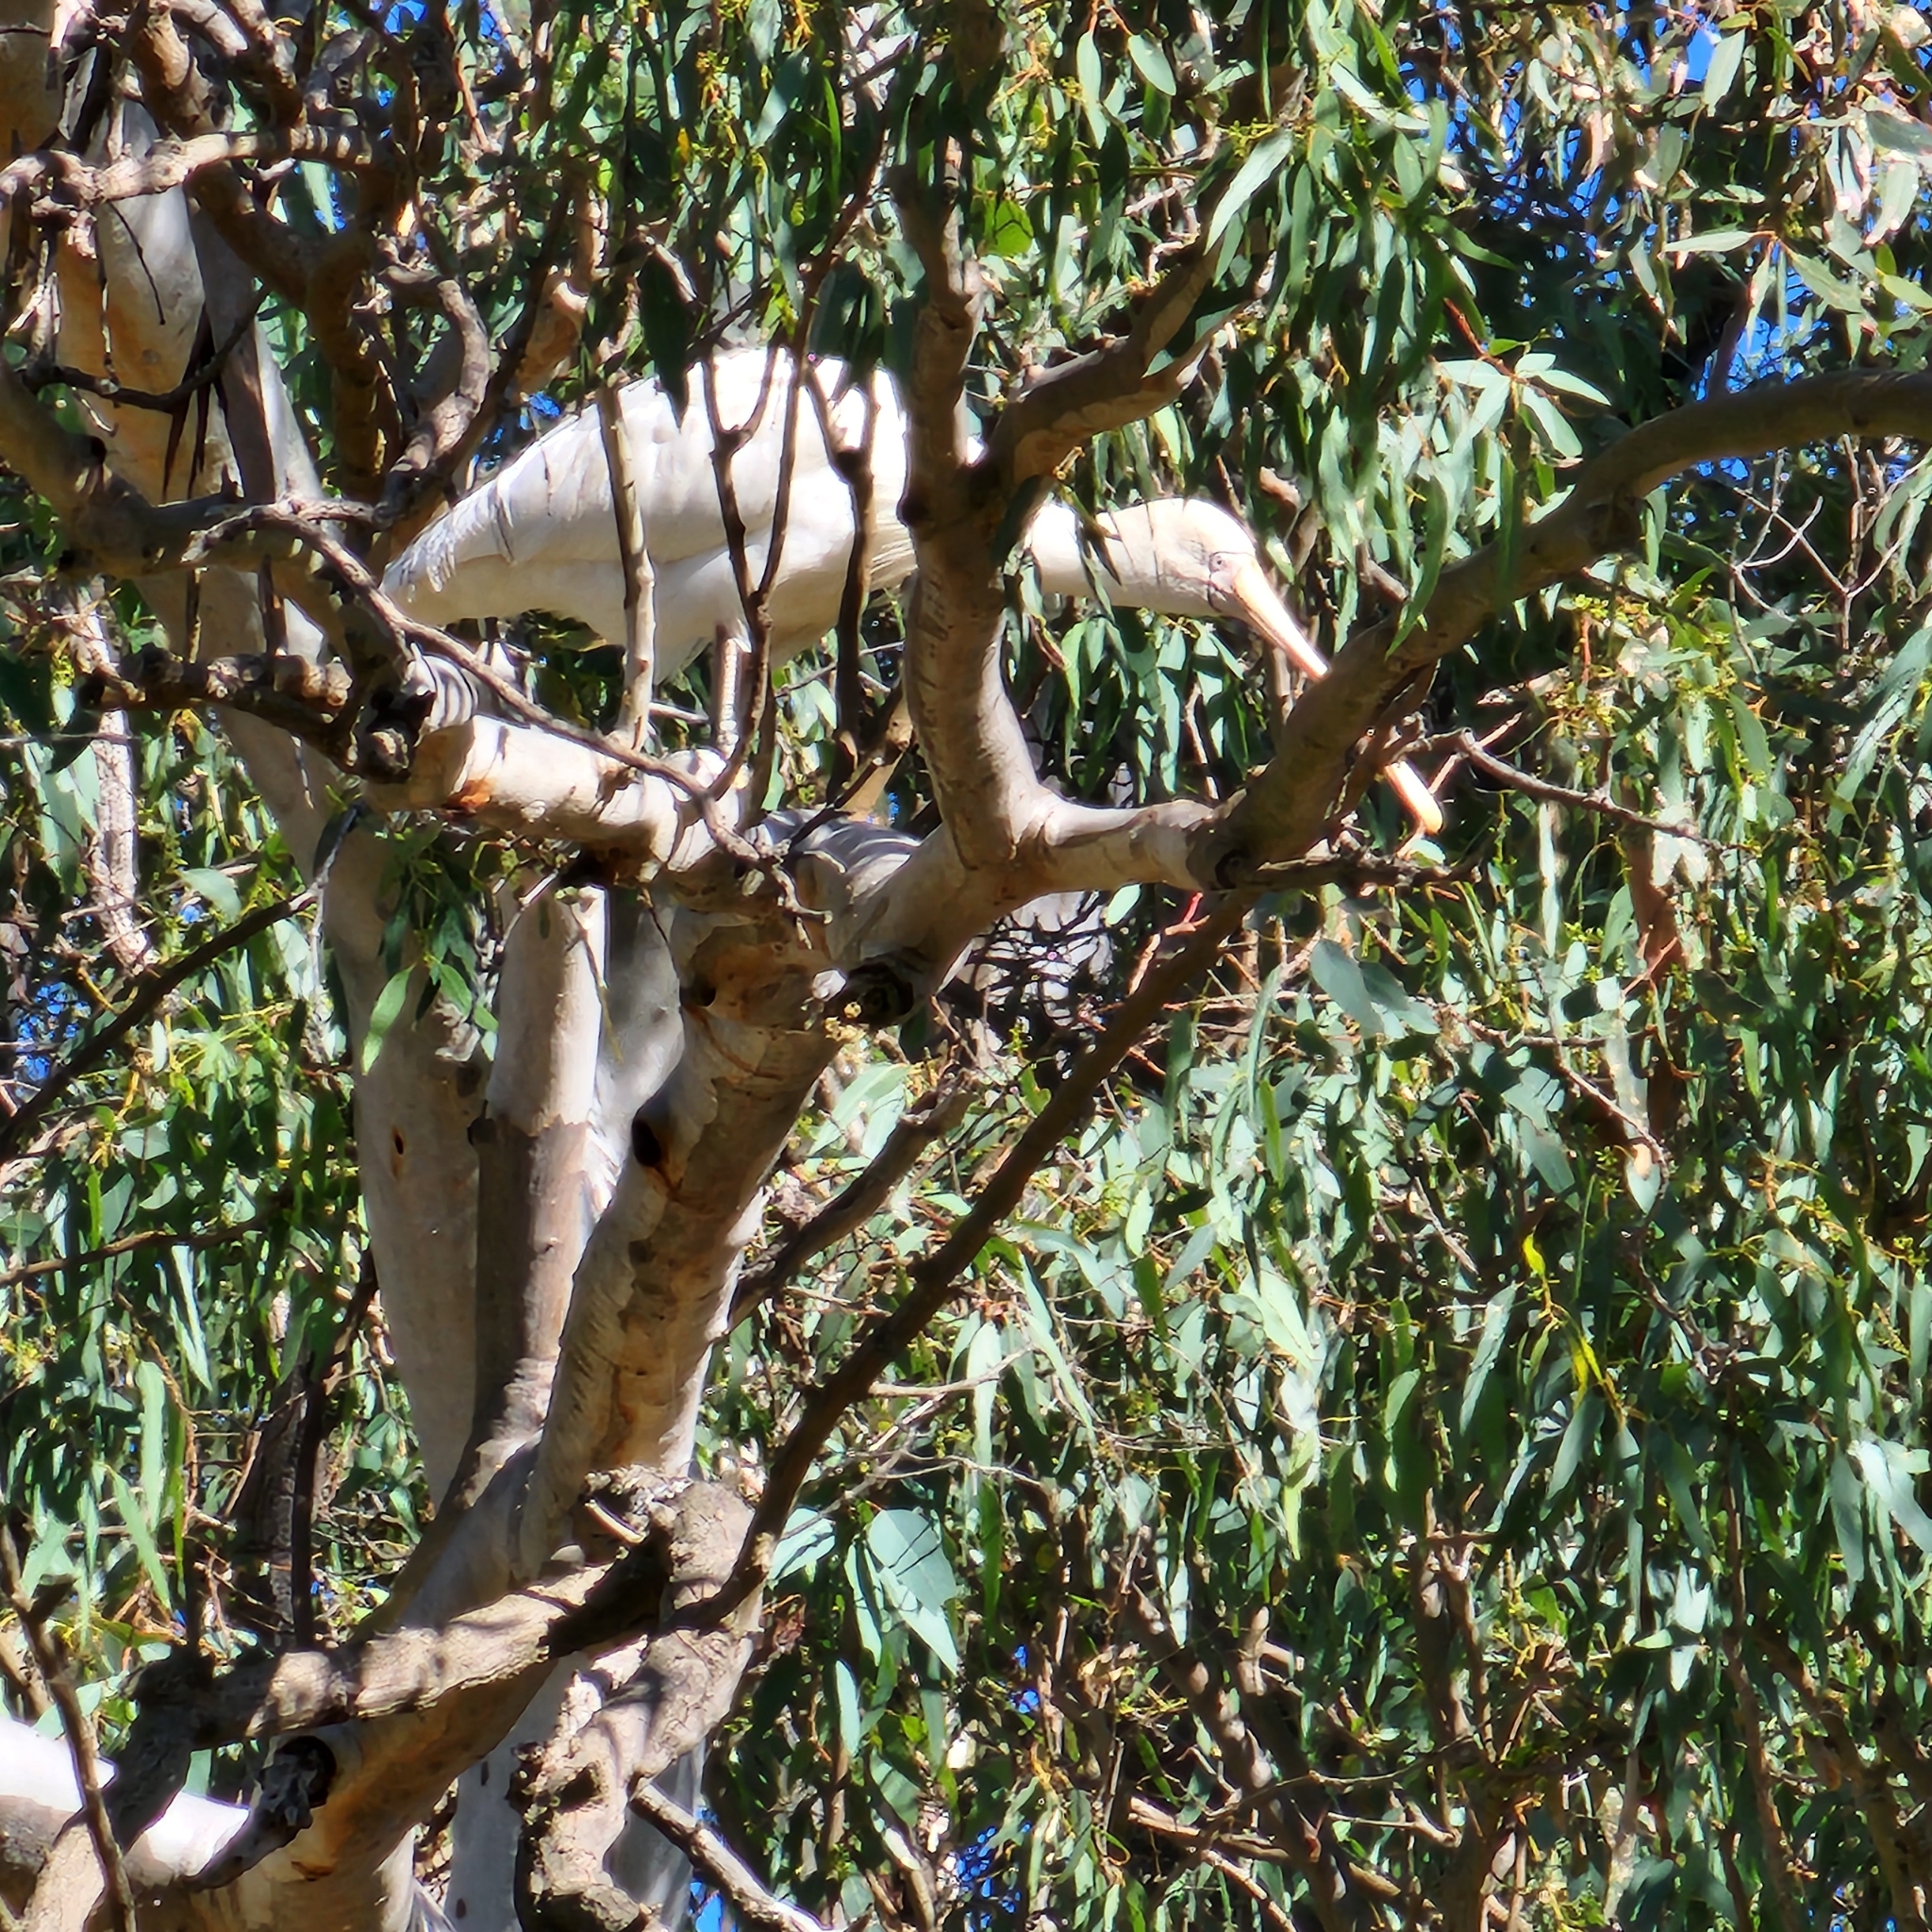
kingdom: Animalia
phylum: Chordata
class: Aves
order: Pelecaniformes
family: Threskiornithidae
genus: Platalea
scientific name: Platalea flavipes
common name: Yellow-billed spoonbill
